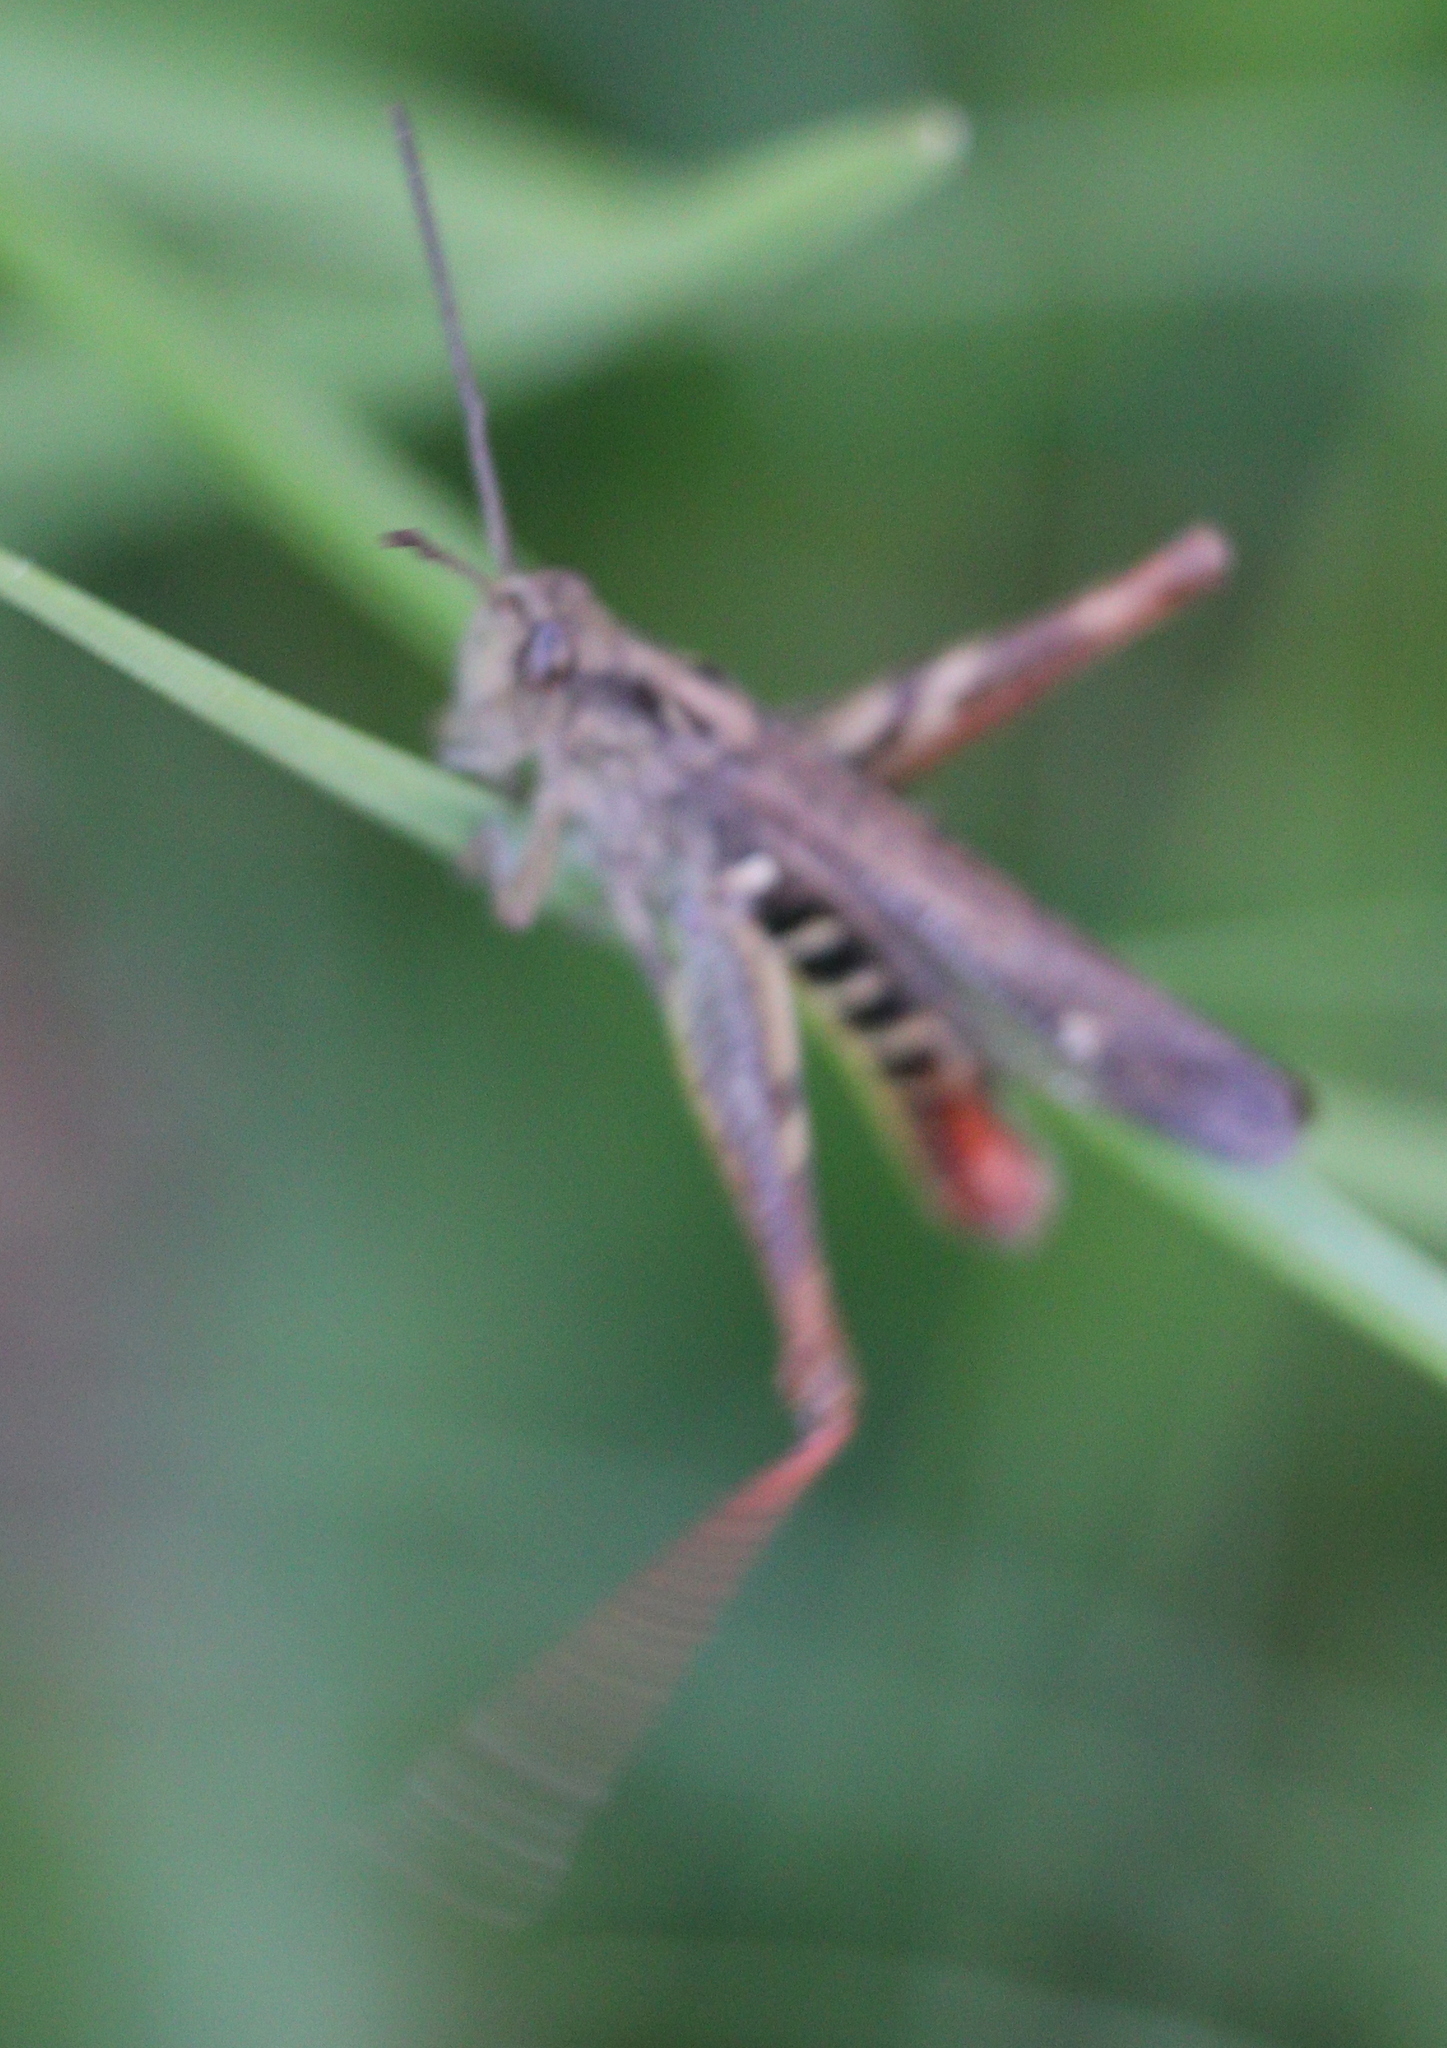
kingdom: Animalia
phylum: Arthropoda
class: Insecta
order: Orthoptera
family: Acrididae
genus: Chorthippus
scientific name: Chorthippus biguttulus
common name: Bow-winged grasshopper
